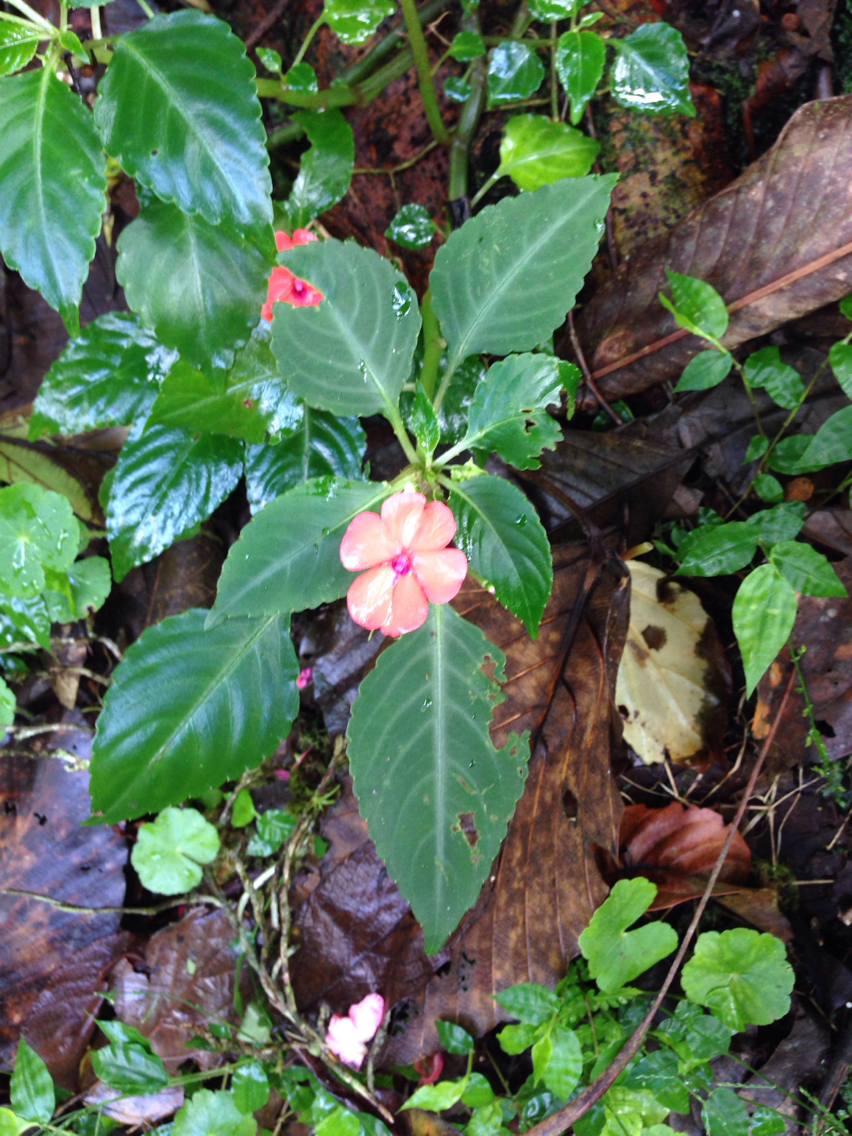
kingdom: Plantae
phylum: Tracheophyta
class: Magnoliopsida
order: Ericales
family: Balsaminaceae
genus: Impatiens
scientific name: Impatiens walleriana
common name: Buzzy lizzy
